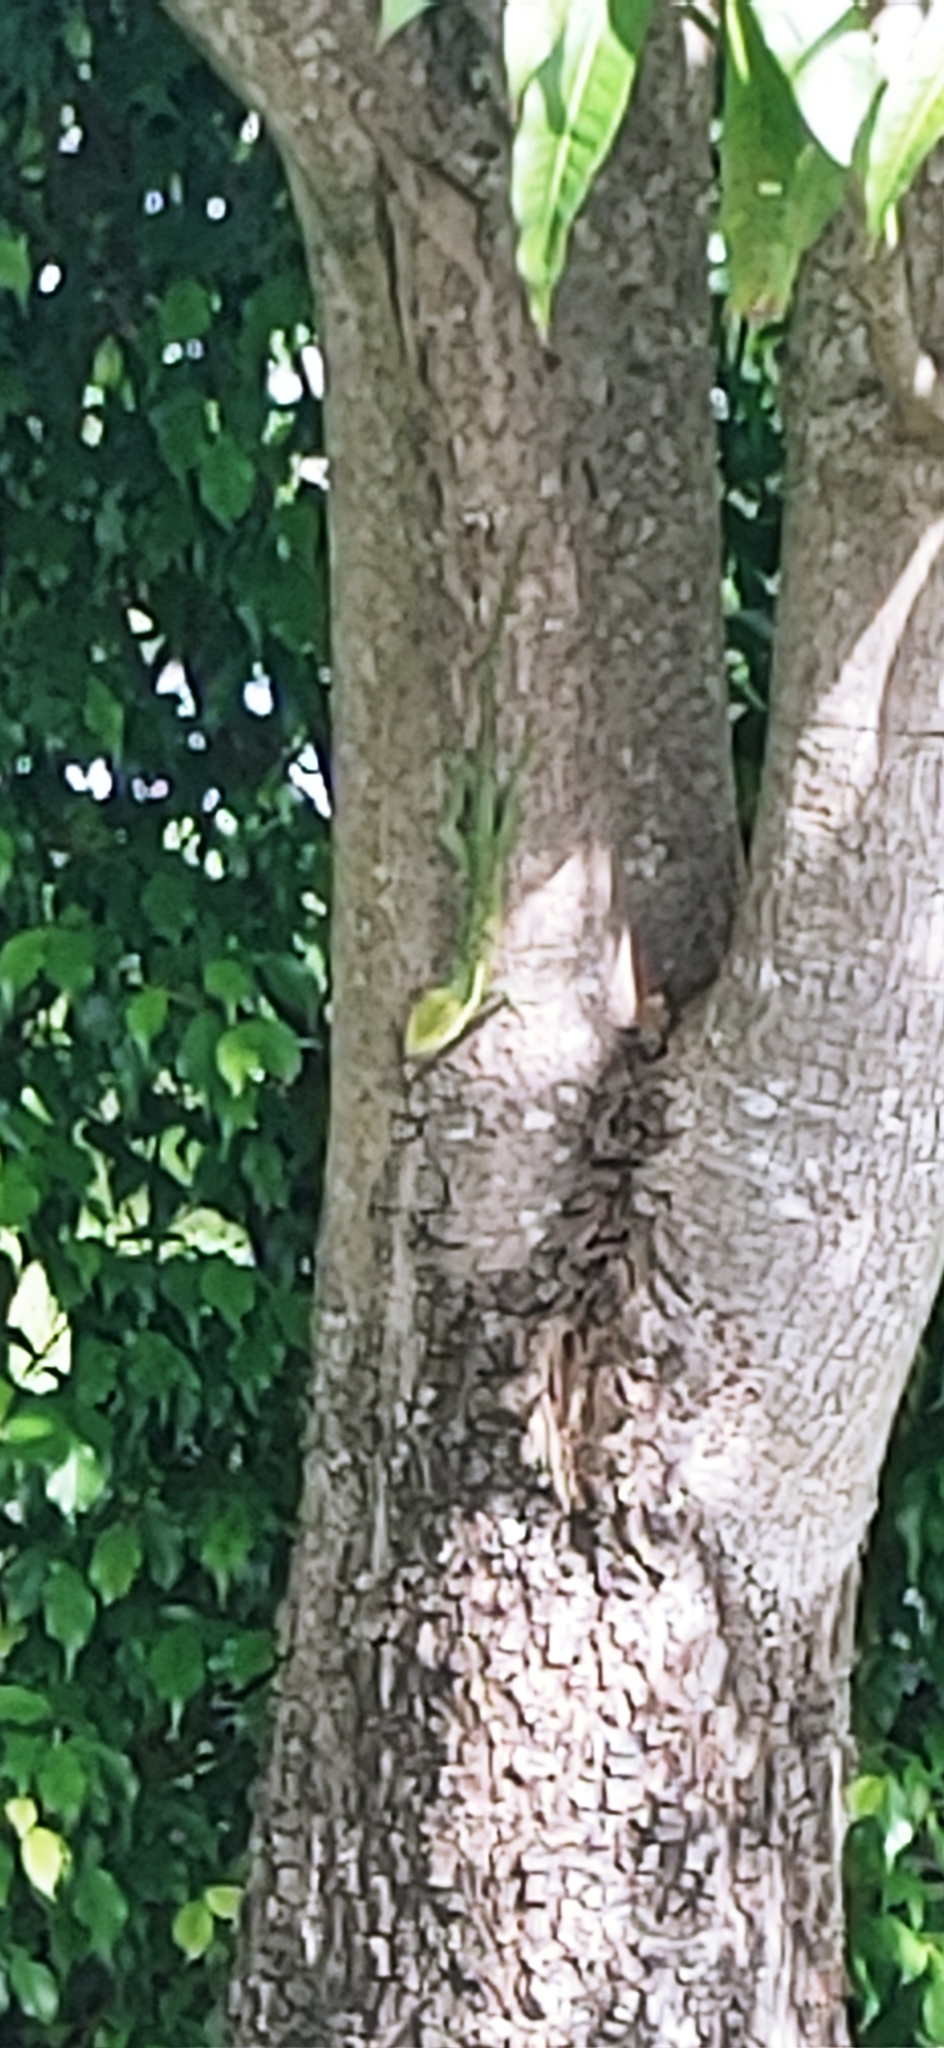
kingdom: Animalia
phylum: Chordata
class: Squamata
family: Dactyloidae
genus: Anolis
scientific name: Anolis equestris
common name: Knight anole
